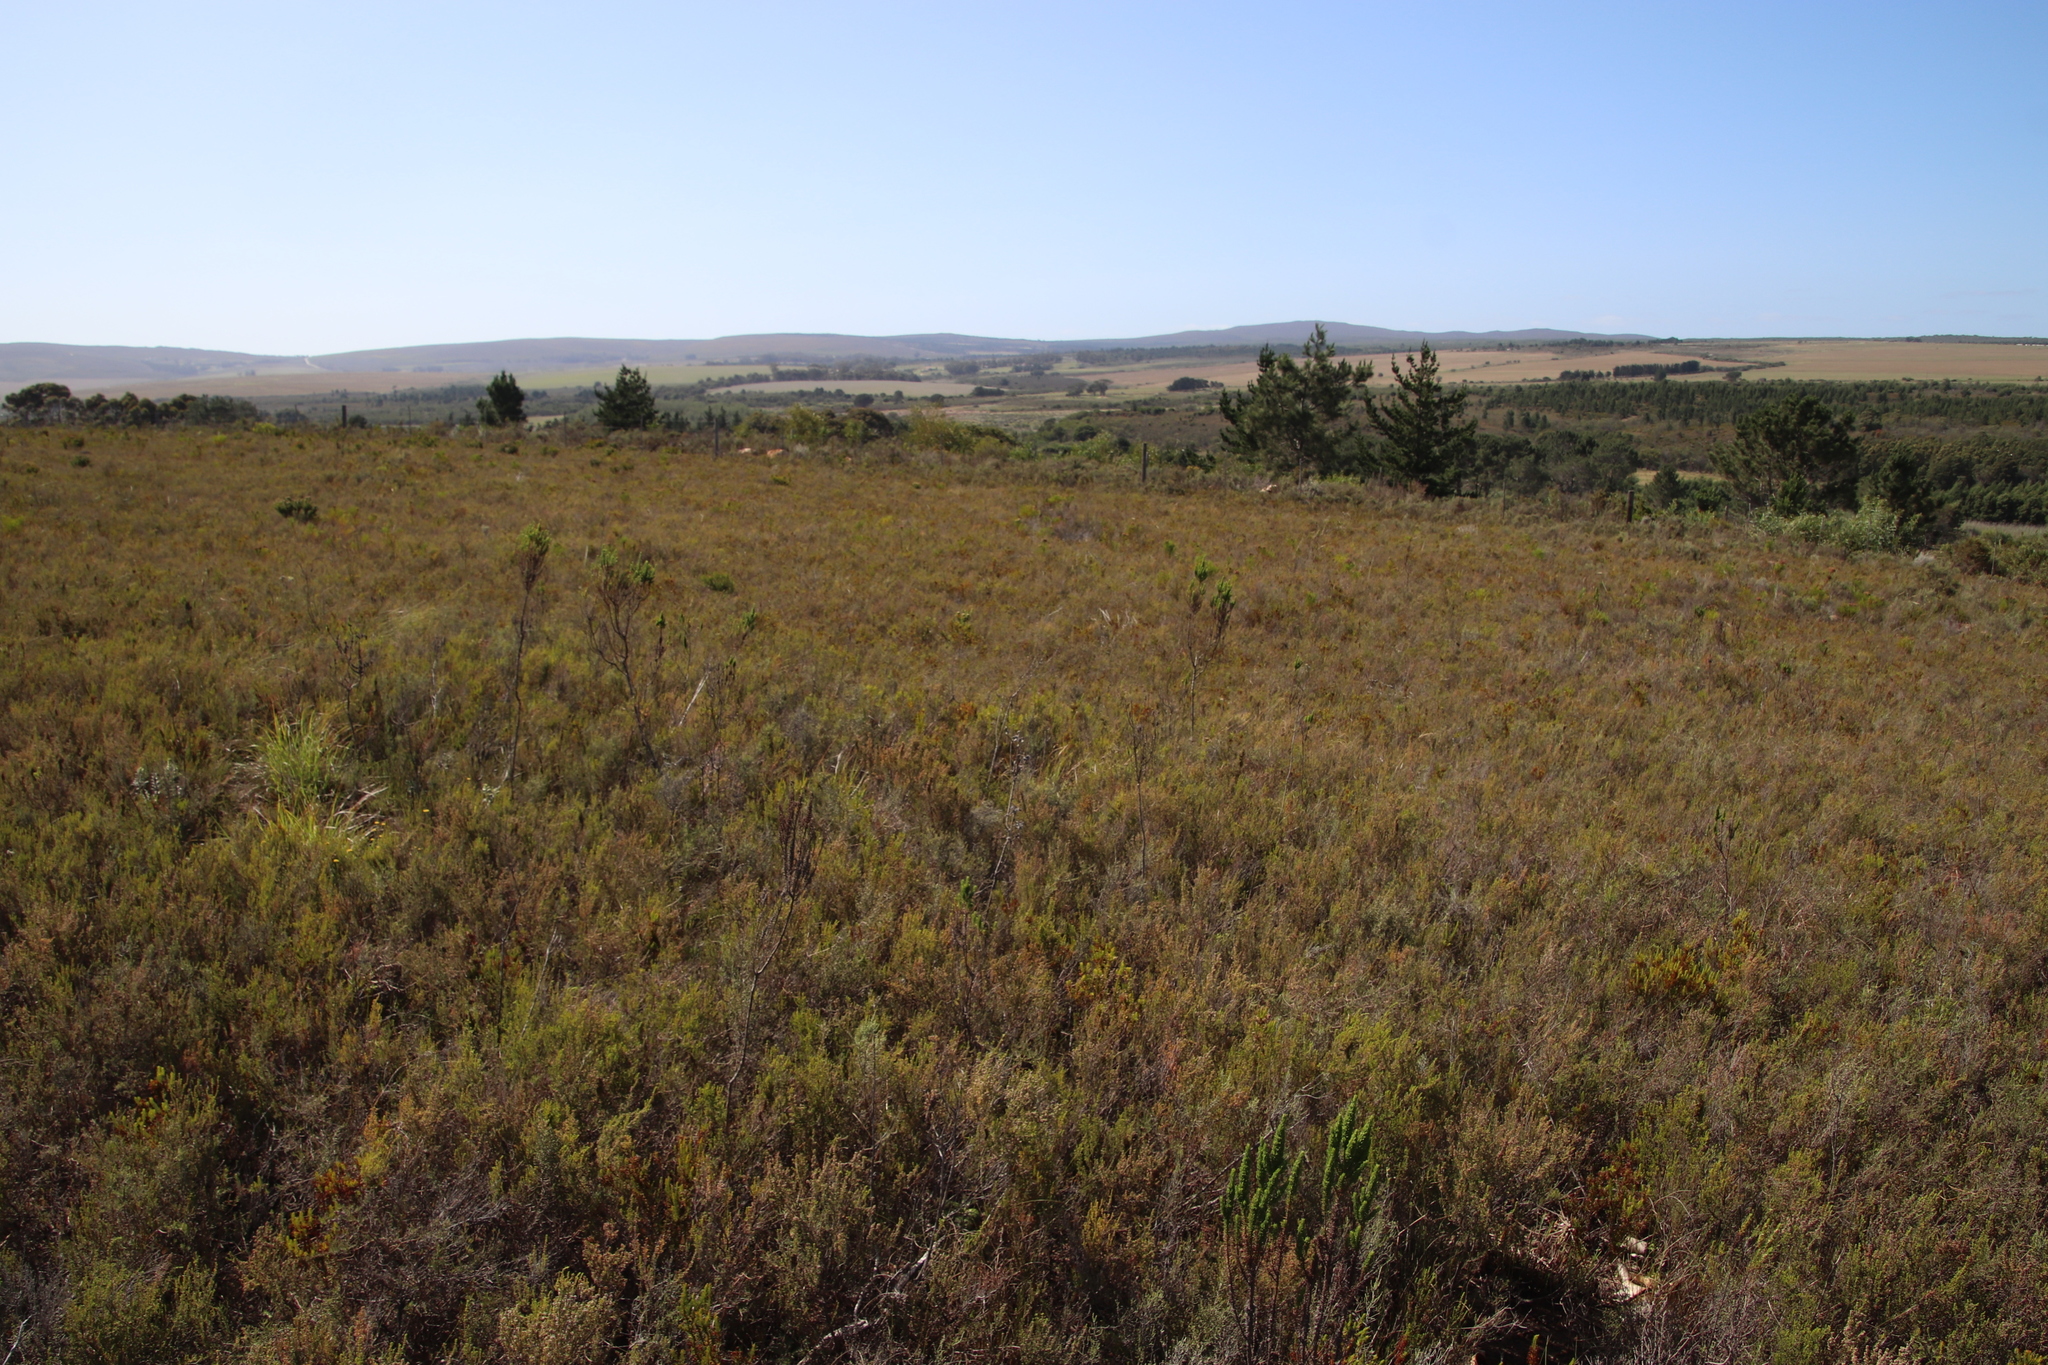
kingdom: Plantae
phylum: Tracheophyta
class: Magnoliopsida
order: Gentianales
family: Rubiaceae
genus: Anthospermum
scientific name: Anthospermum aethiopicum
